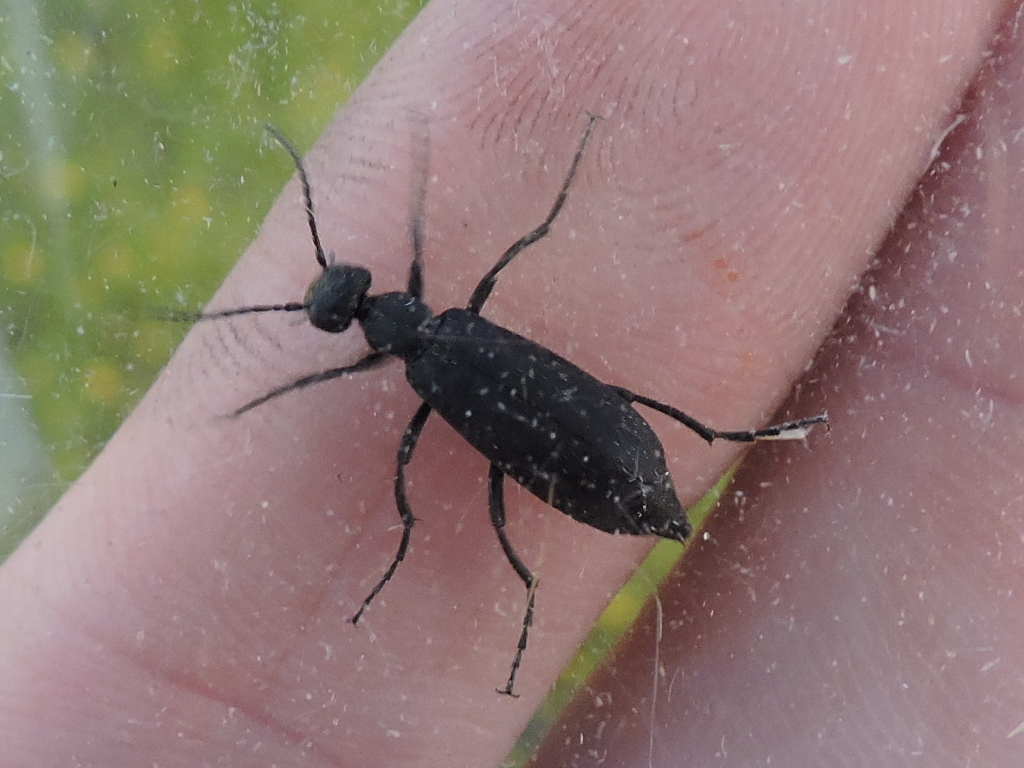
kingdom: Animalia
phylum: Arthropoda
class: Insecta
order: Coleoptera
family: Meloidae
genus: Epicauta
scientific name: Epicauta pensylvanica
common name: Black blister beetle
